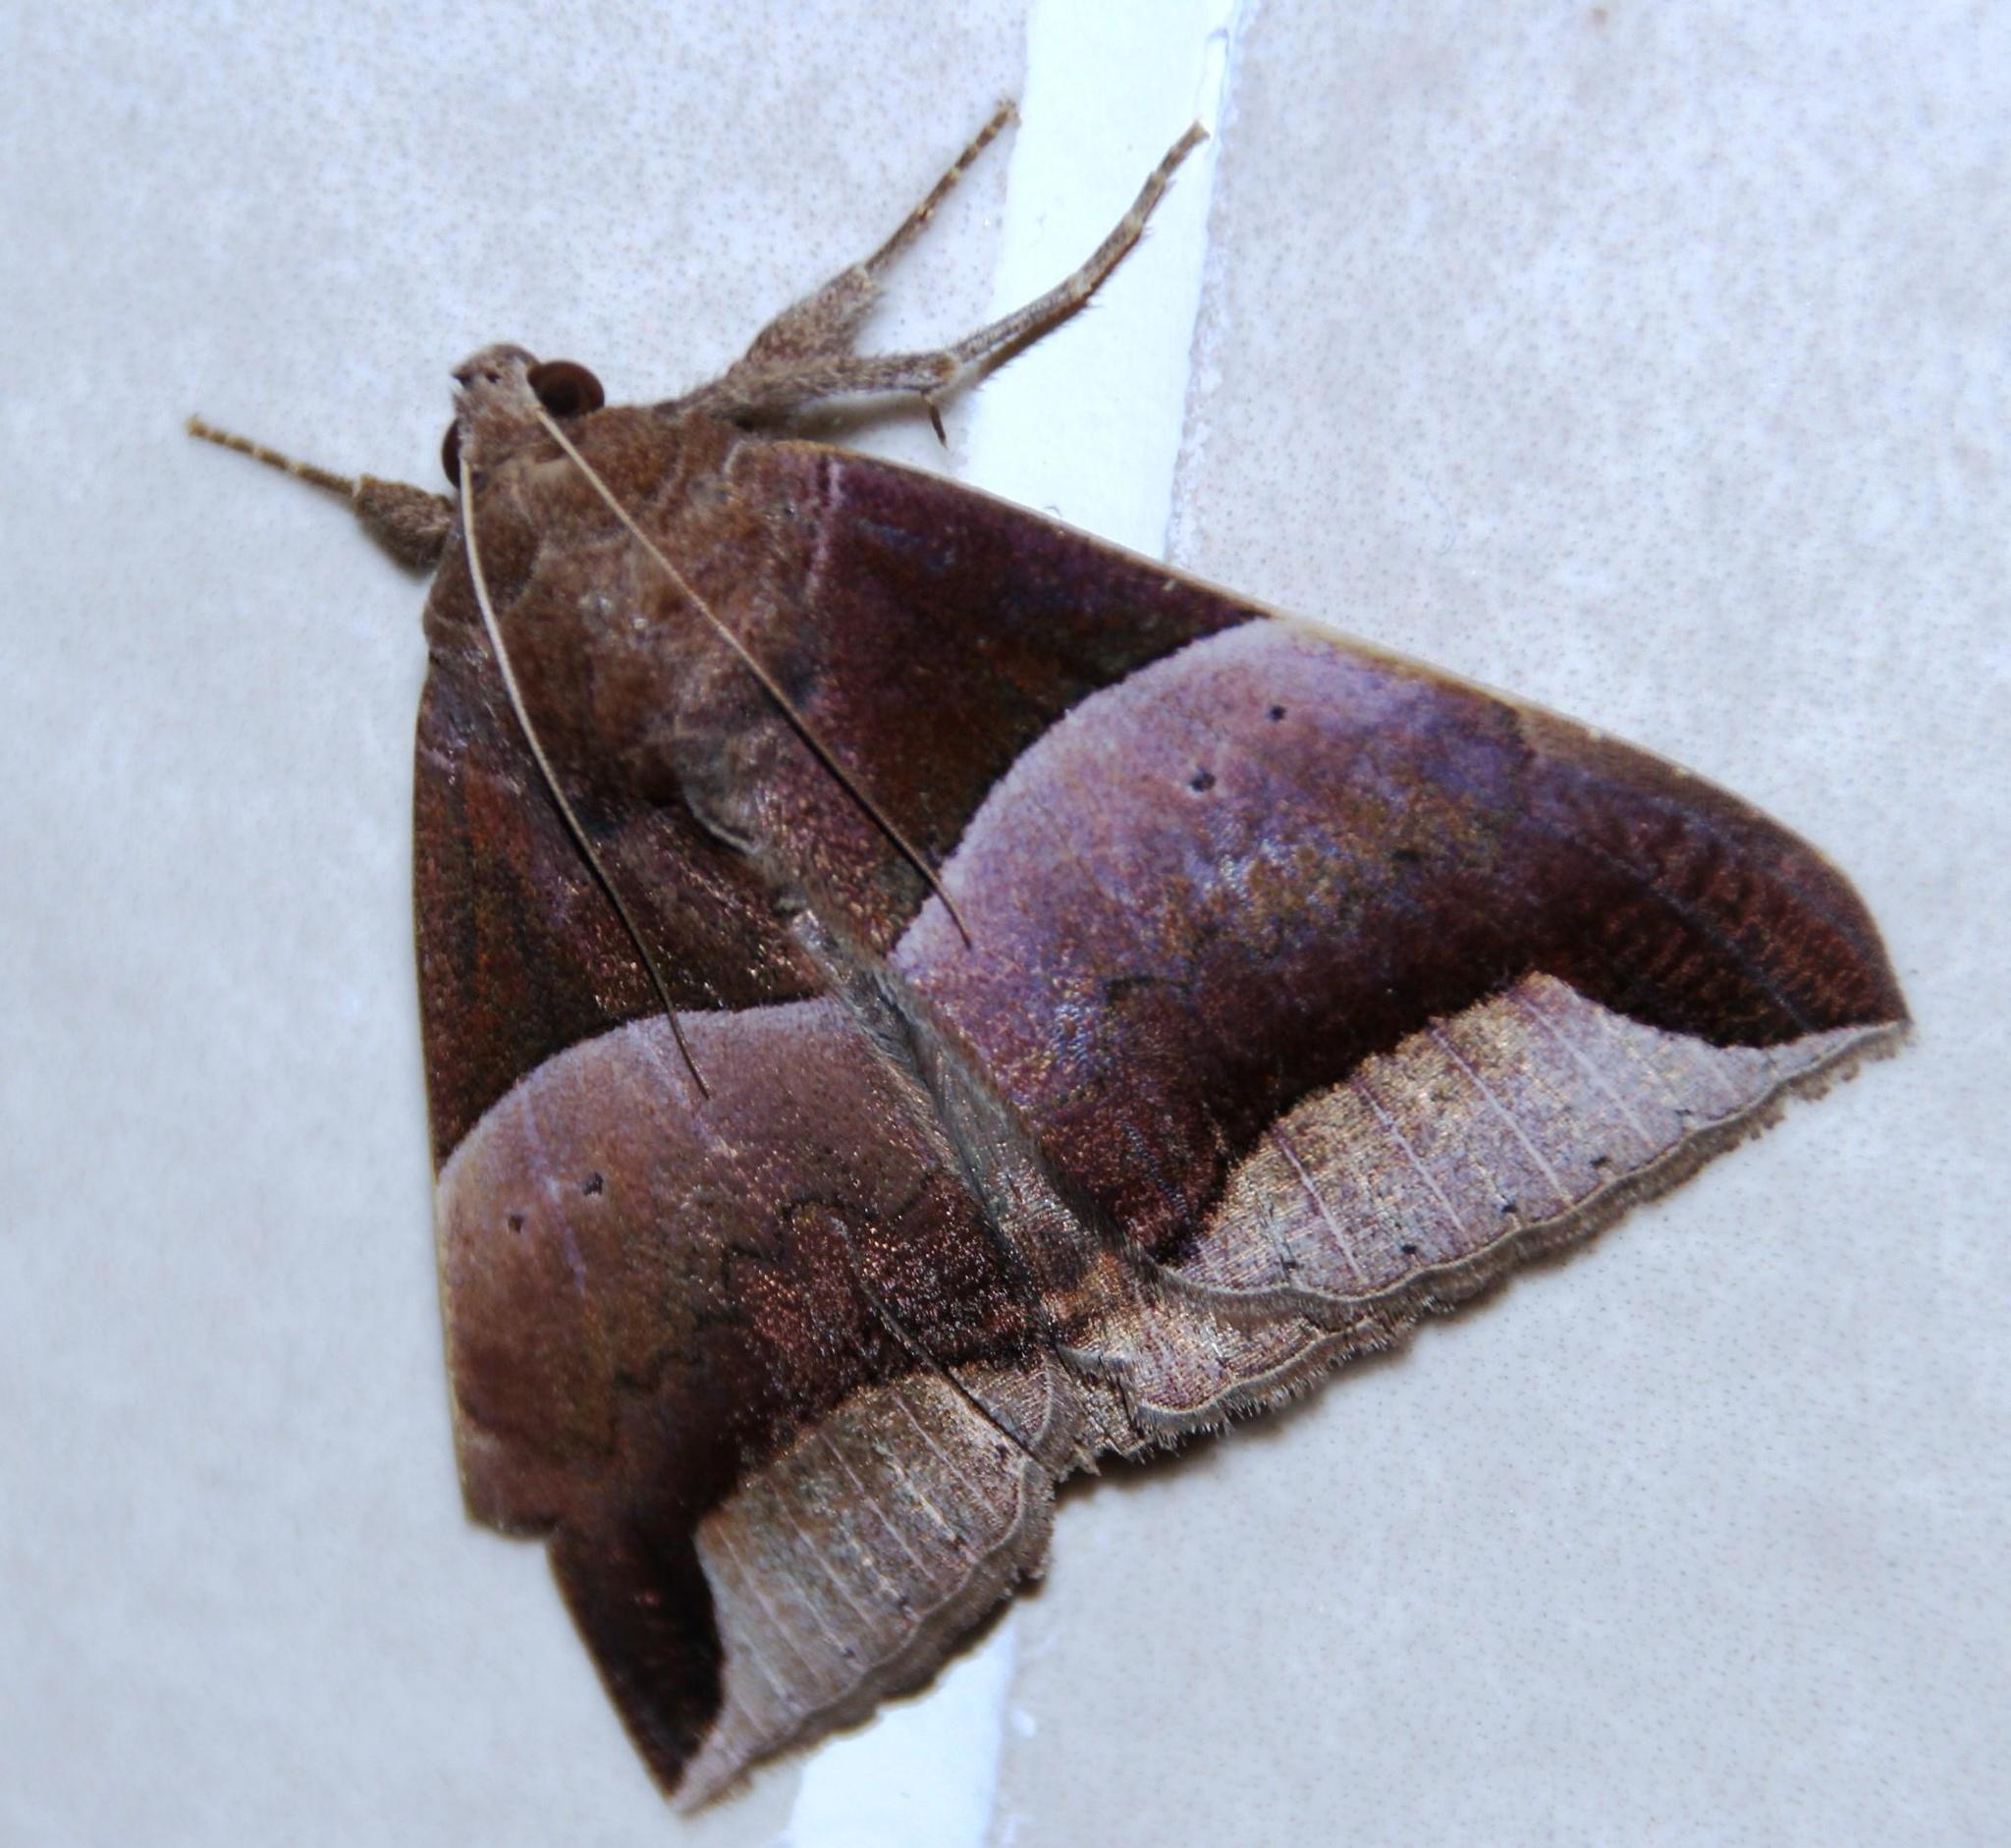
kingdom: Animalia
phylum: Arthropoda
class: Insecta
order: Lepidoptera
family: Erebidae
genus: Achaea
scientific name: Achaea echo
